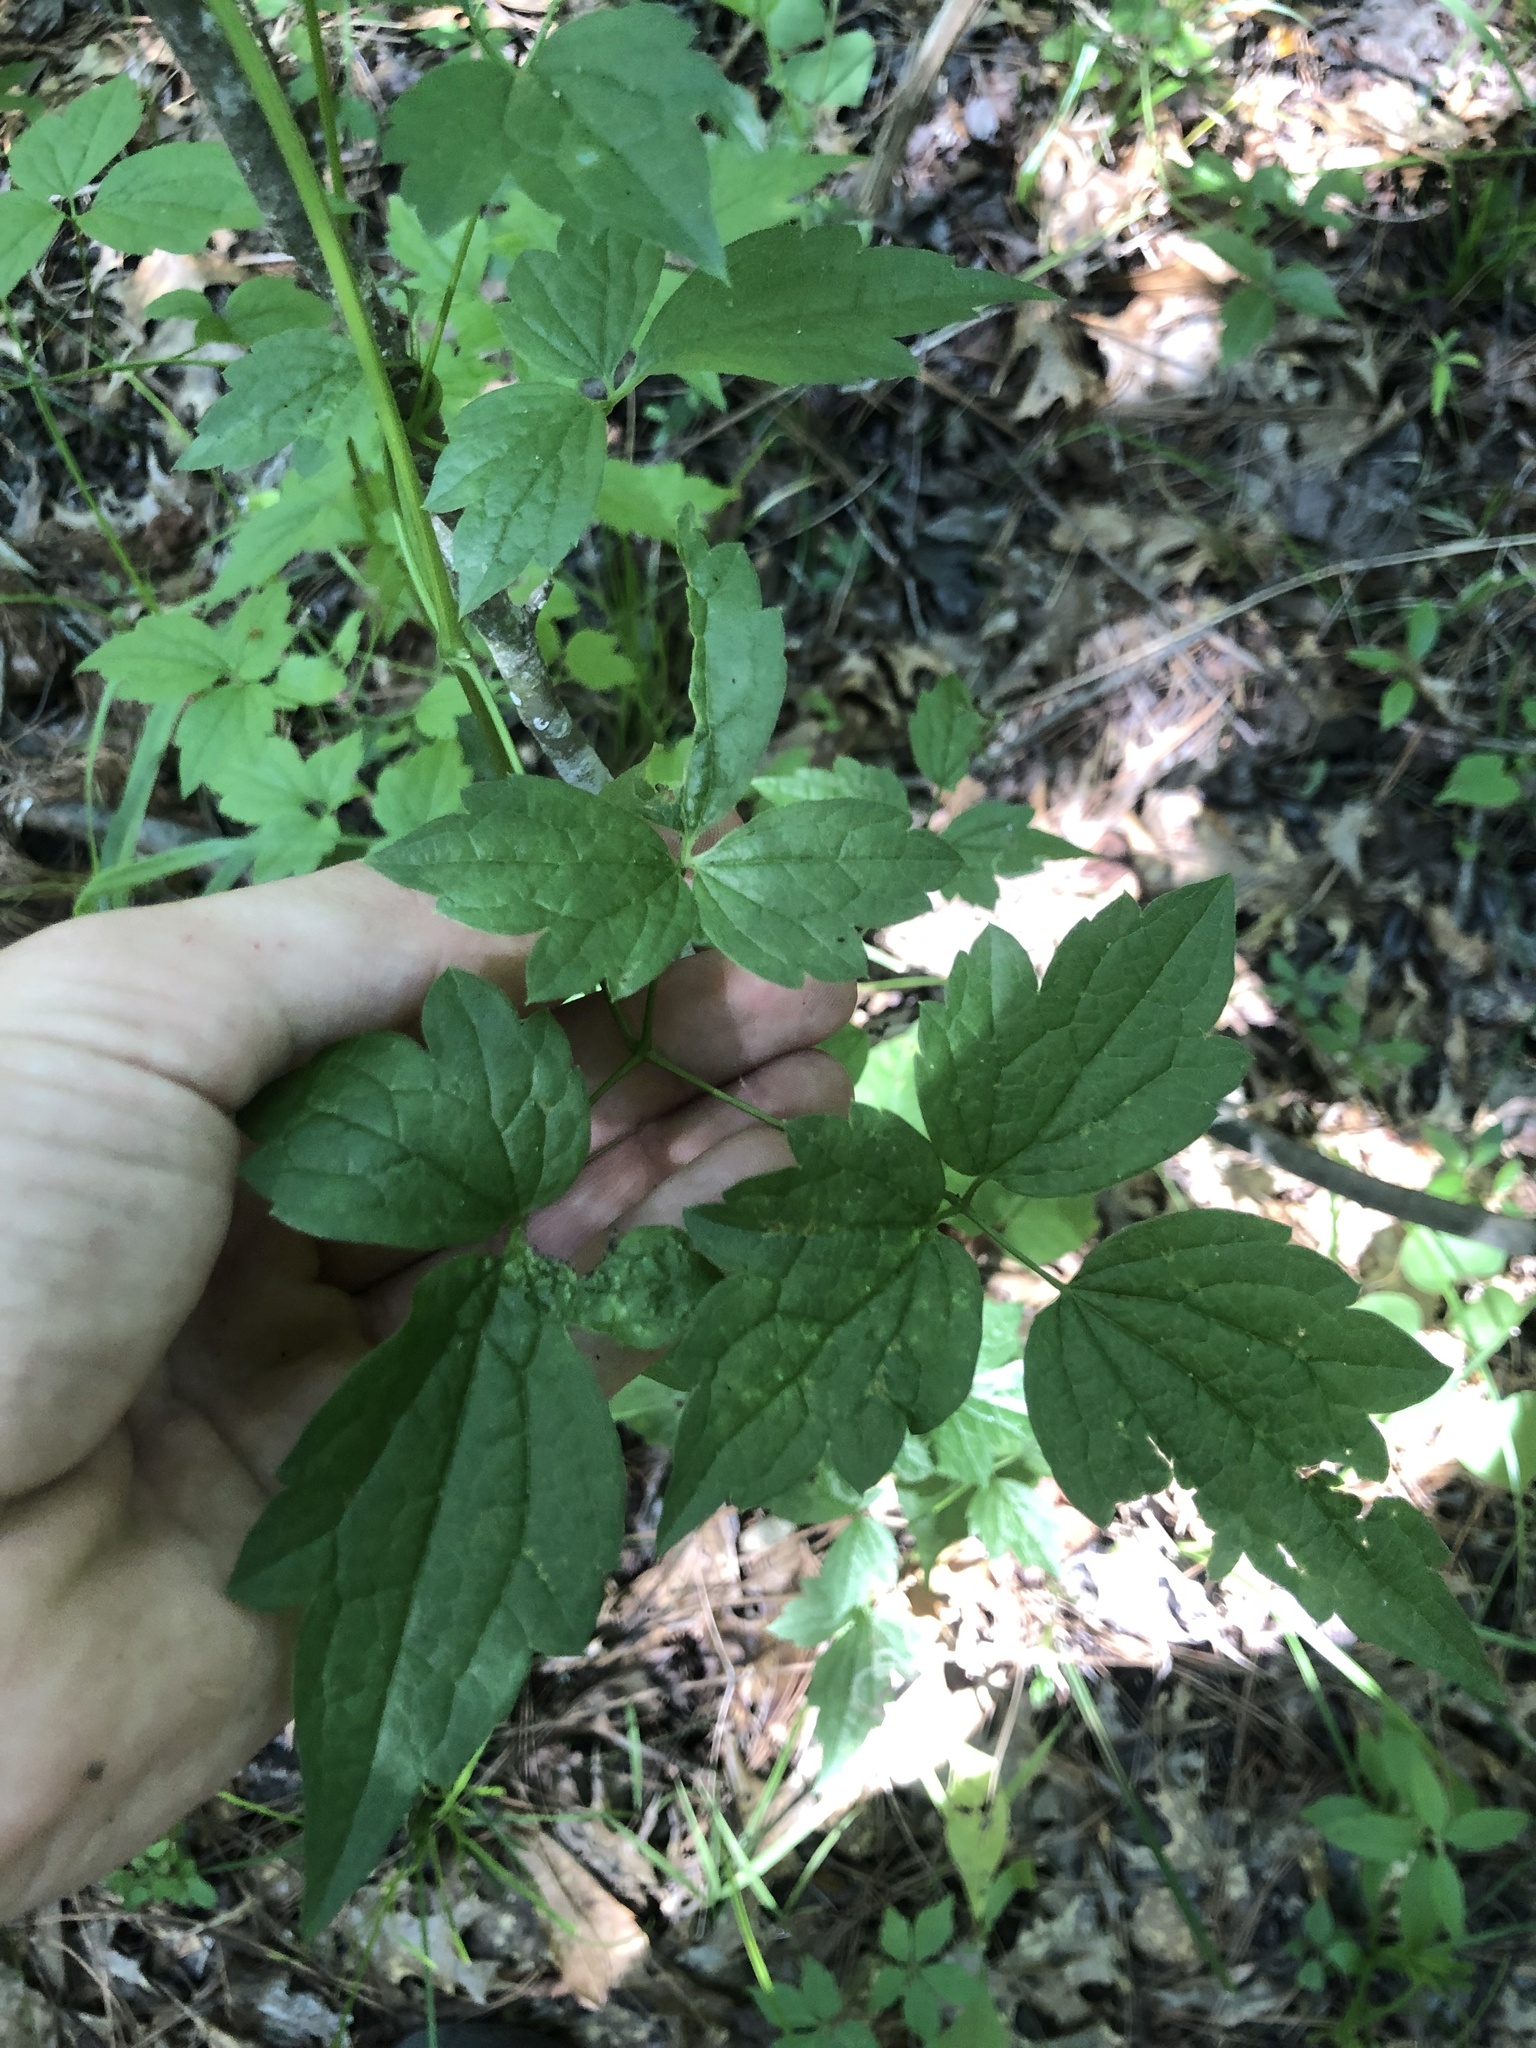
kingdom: Plantae
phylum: Tracheophyta
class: Magnoliopsida
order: Ranunculales
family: Ranunculaceae
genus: Clematis
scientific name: Clematis catesbyana
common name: Virgin's bower
